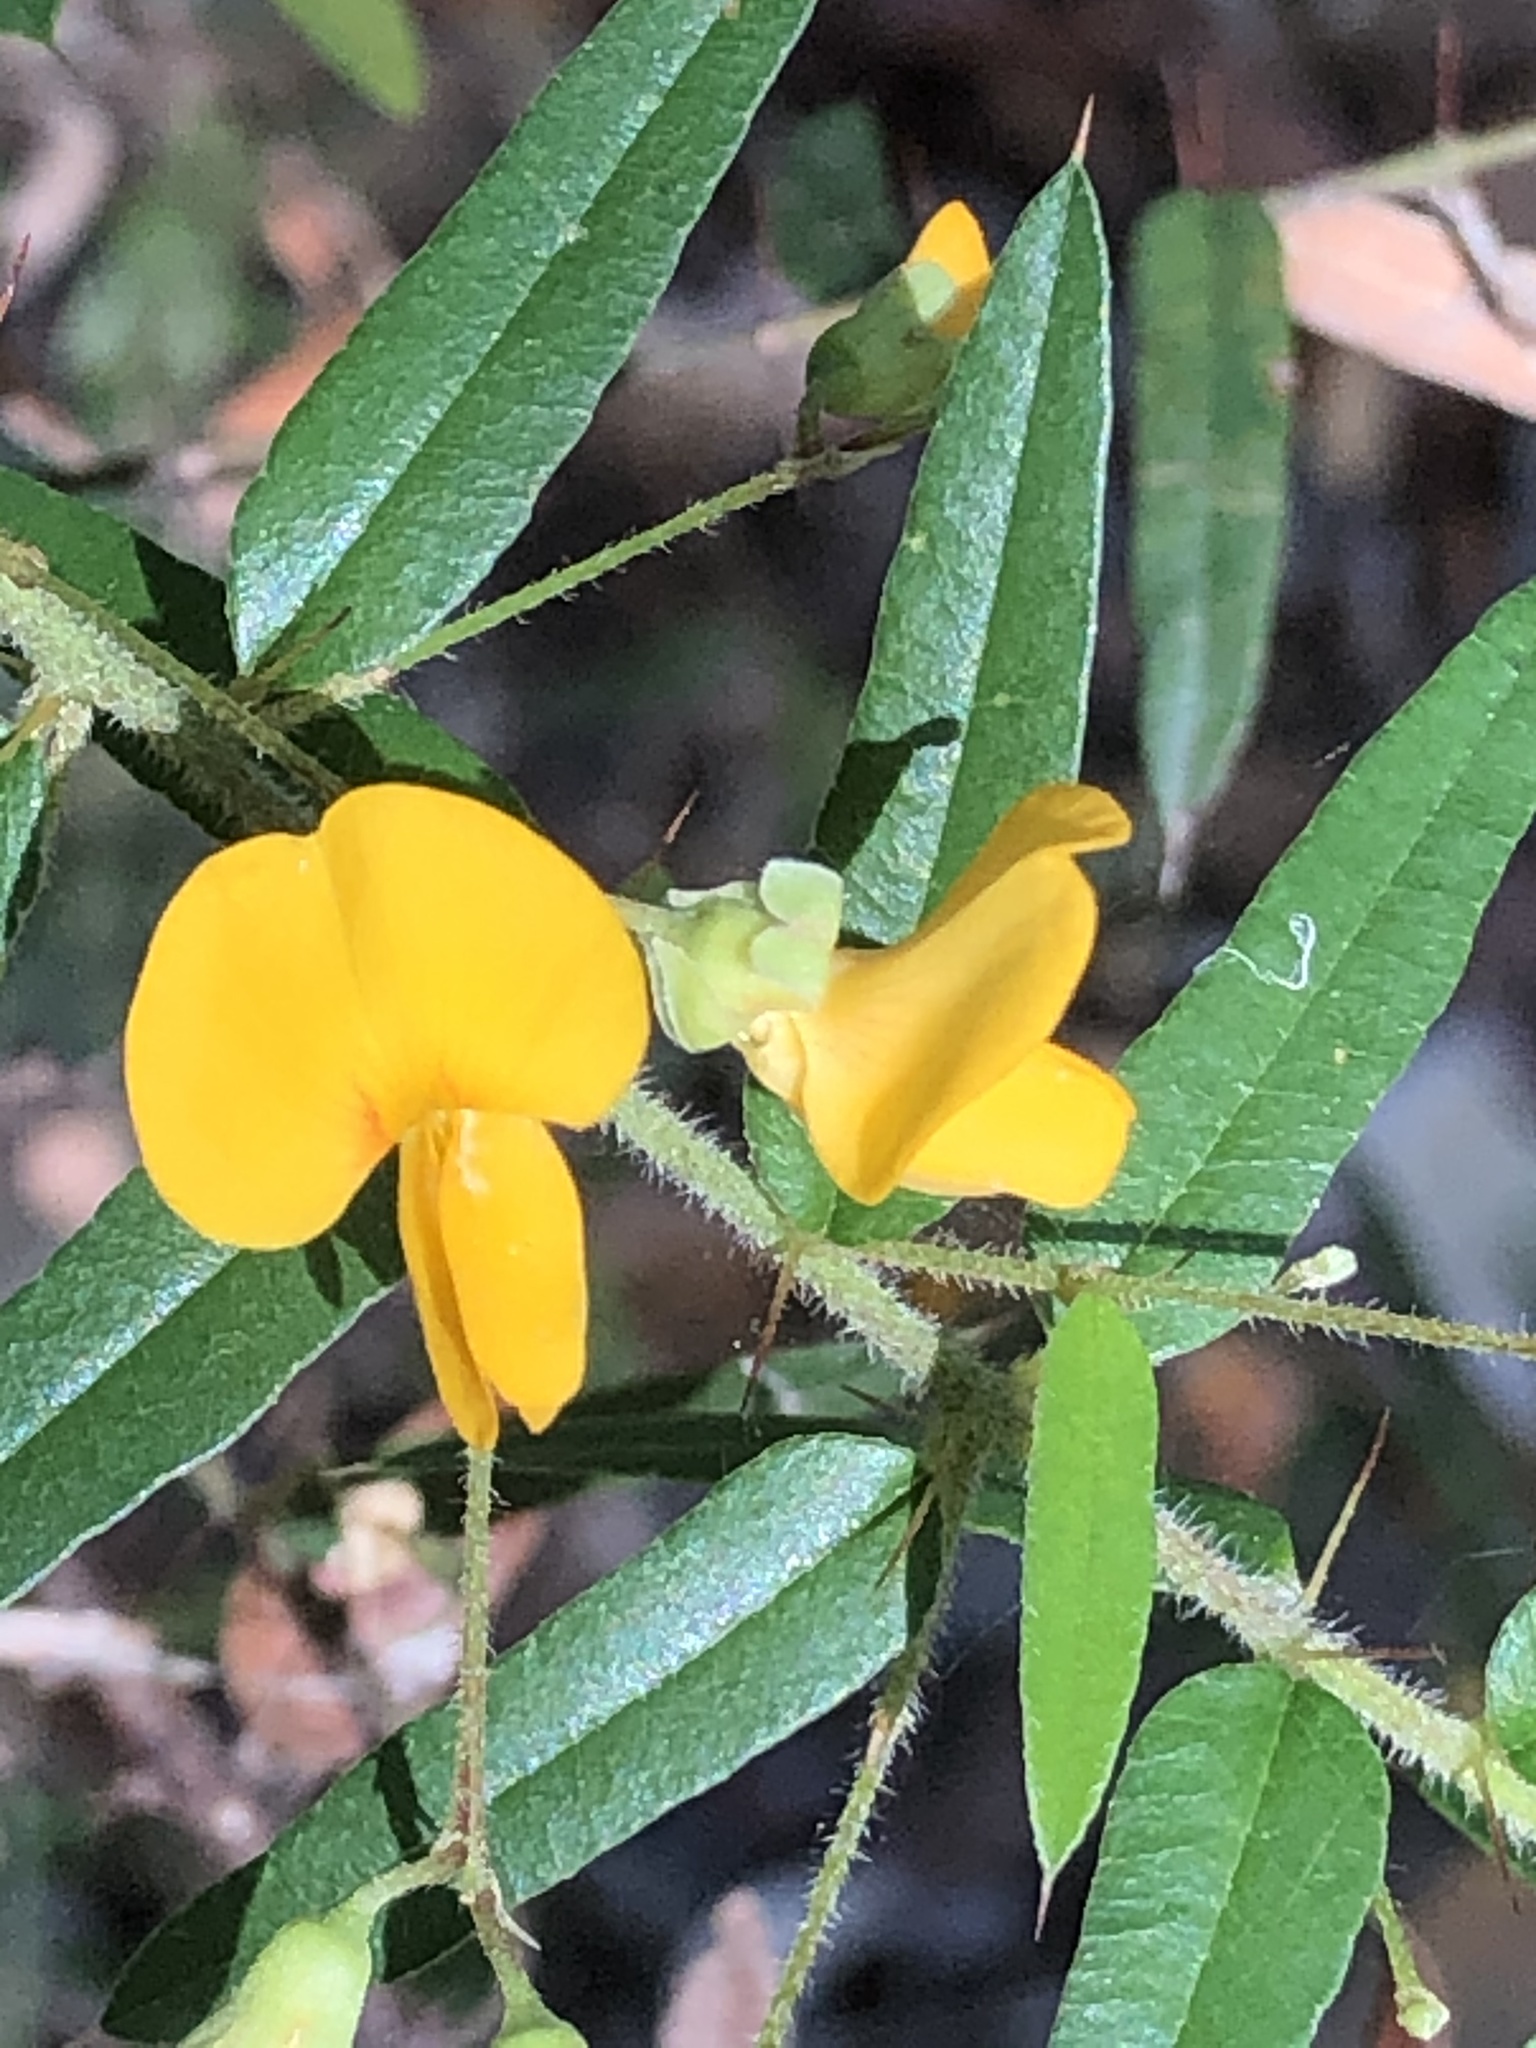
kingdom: Plantae
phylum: Tracheophyta
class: Magnoliopsida
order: Fabales
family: Fabaceae
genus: Podolobium
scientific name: Podolobium aciculiferum
